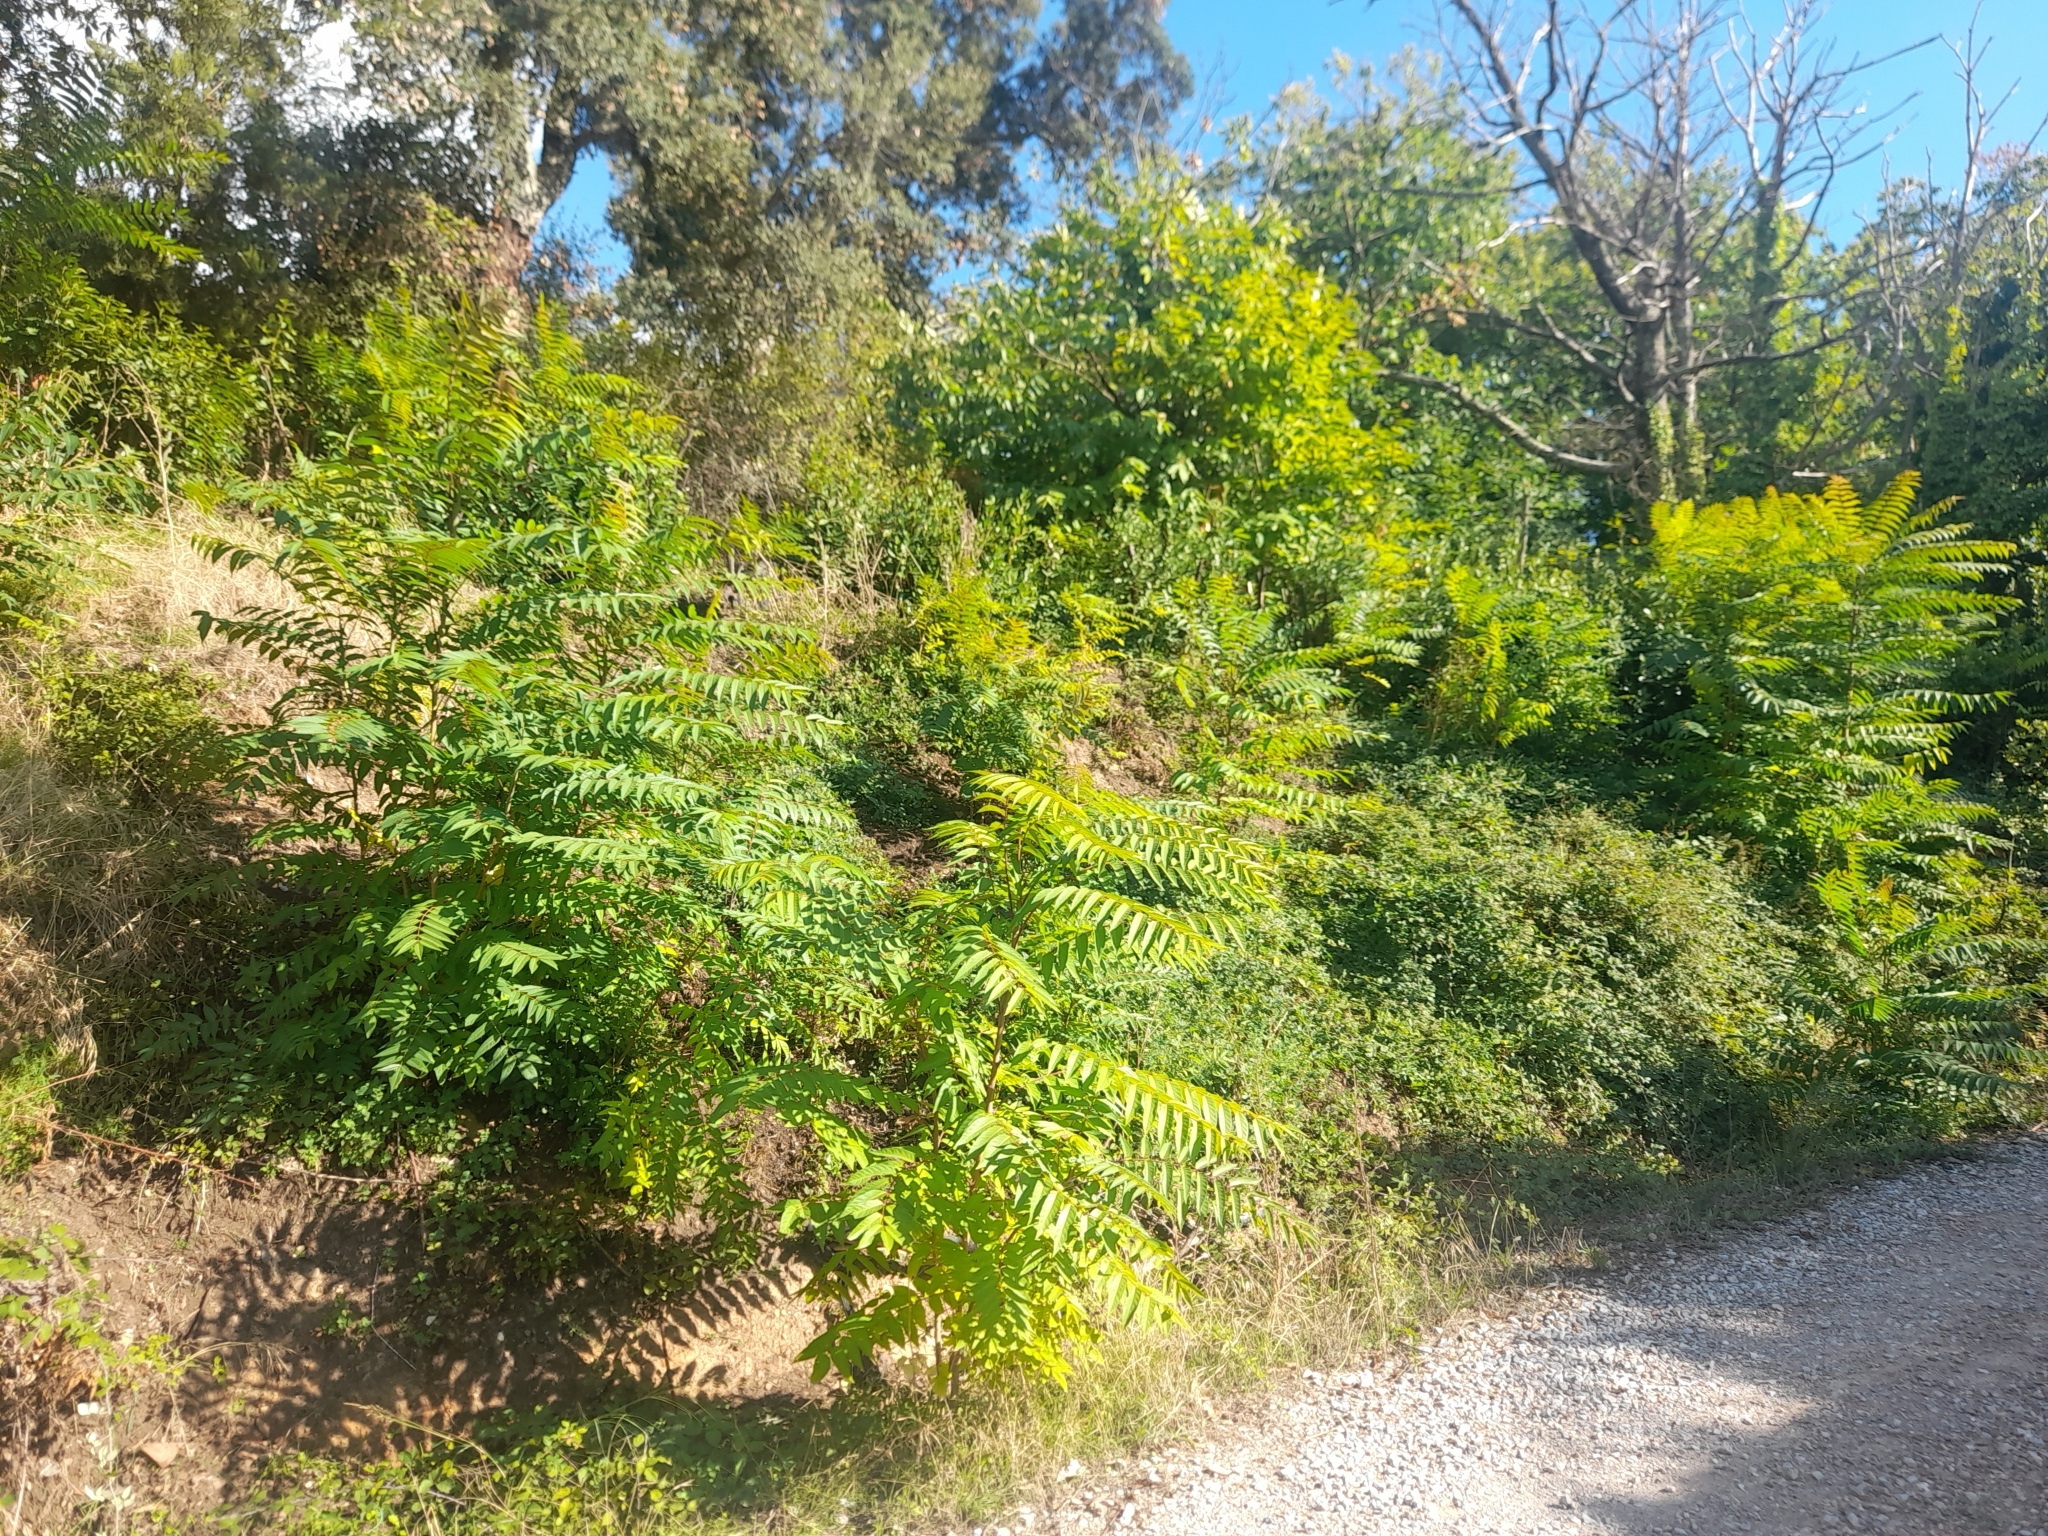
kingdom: Plantae
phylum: Tracheophyta
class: Magnoliopsida
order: Sapindales
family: Simaroubaceae
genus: Ailanthus
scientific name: Ailanthus altissima
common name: Tree-of-heaven
